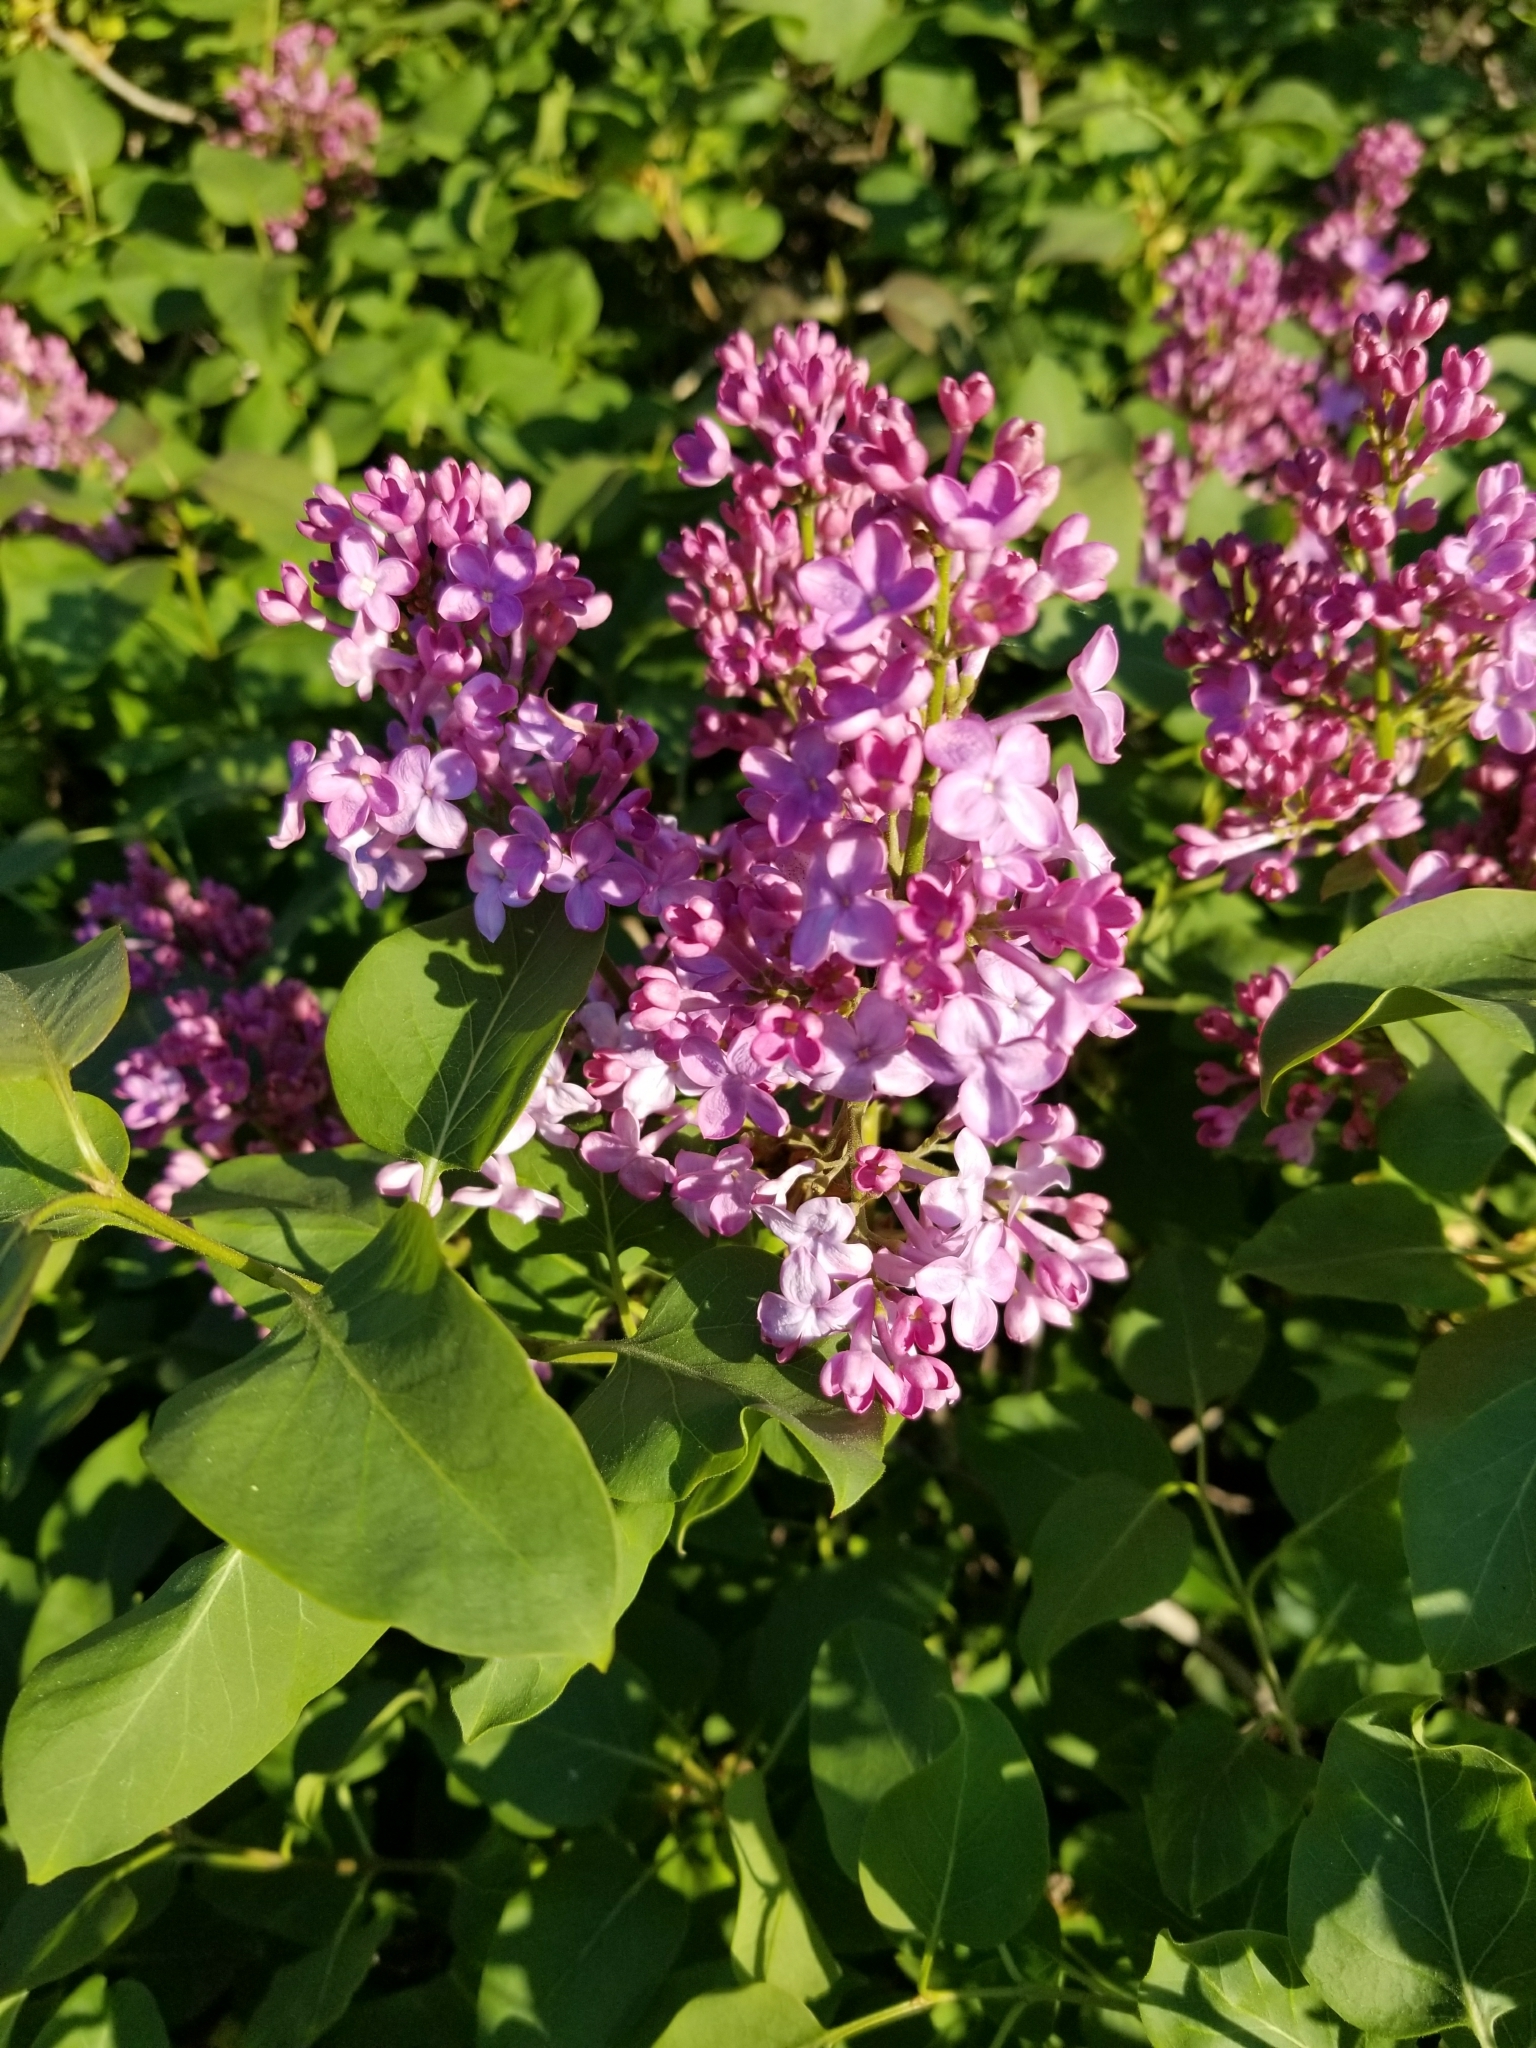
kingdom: Plantae
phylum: Tracheophyta
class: Magnoliopsida
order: Lamiales
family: Oleaceae
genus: Syringa
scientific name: Syringa vulgaris
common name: Common lilac
